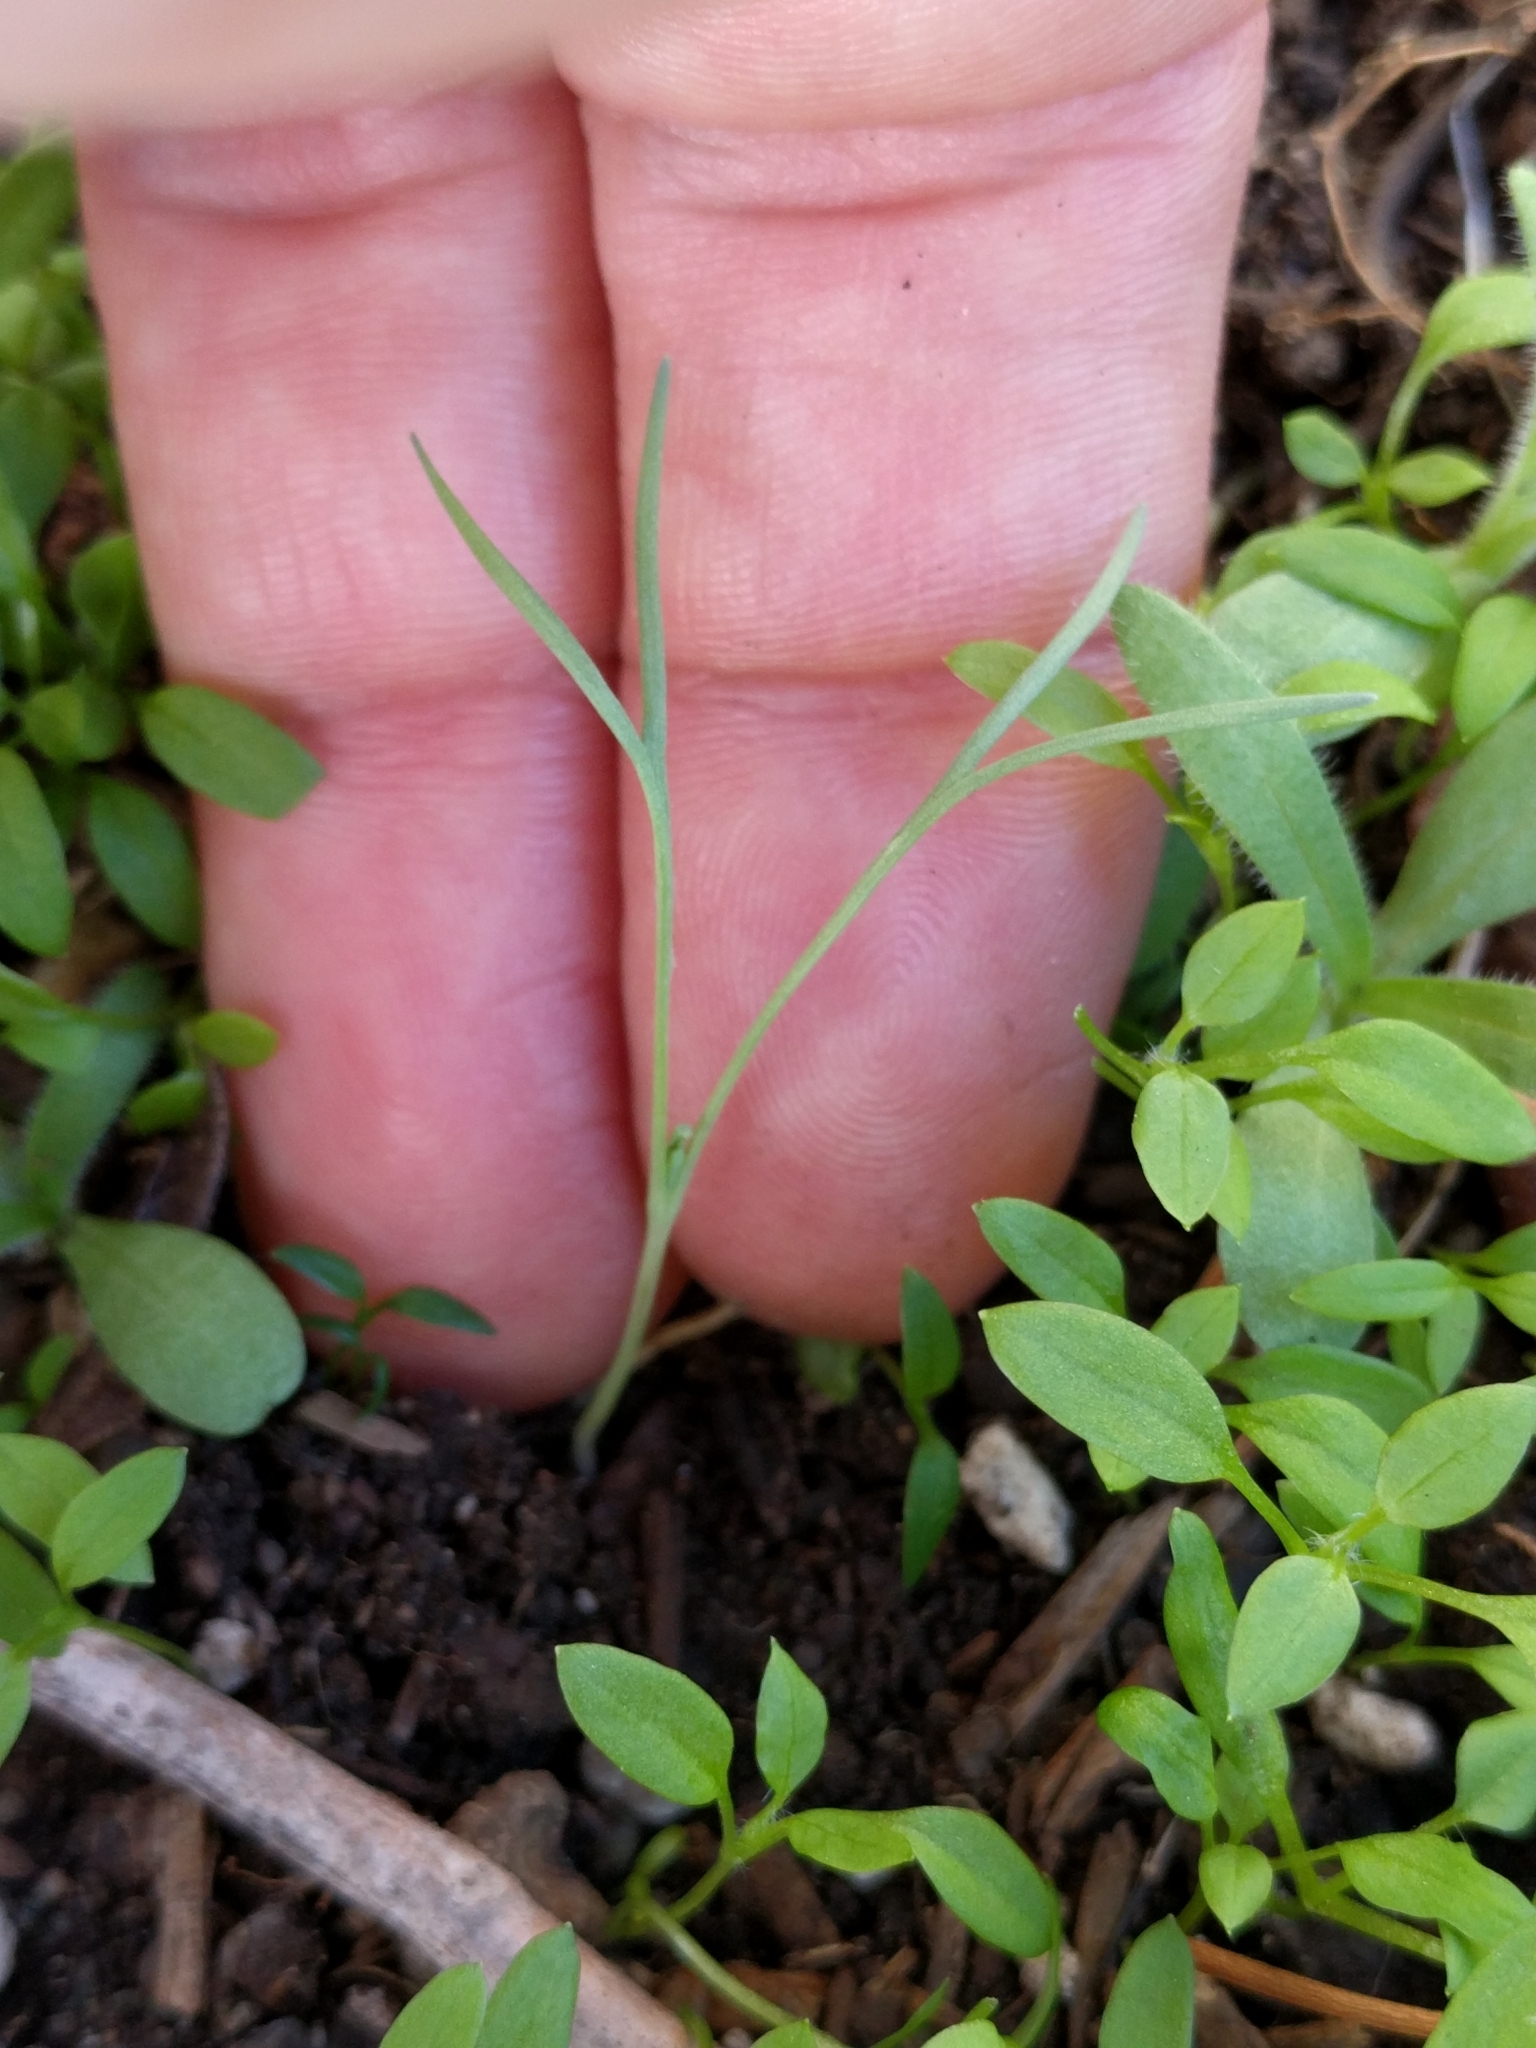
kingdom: Plantae
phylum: Tracheophyta
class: Magnoliopsida
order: Ranunculales
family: Papaveraceae
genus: Eschscholzia
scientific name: Eschscholzia californica
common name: California poppy
